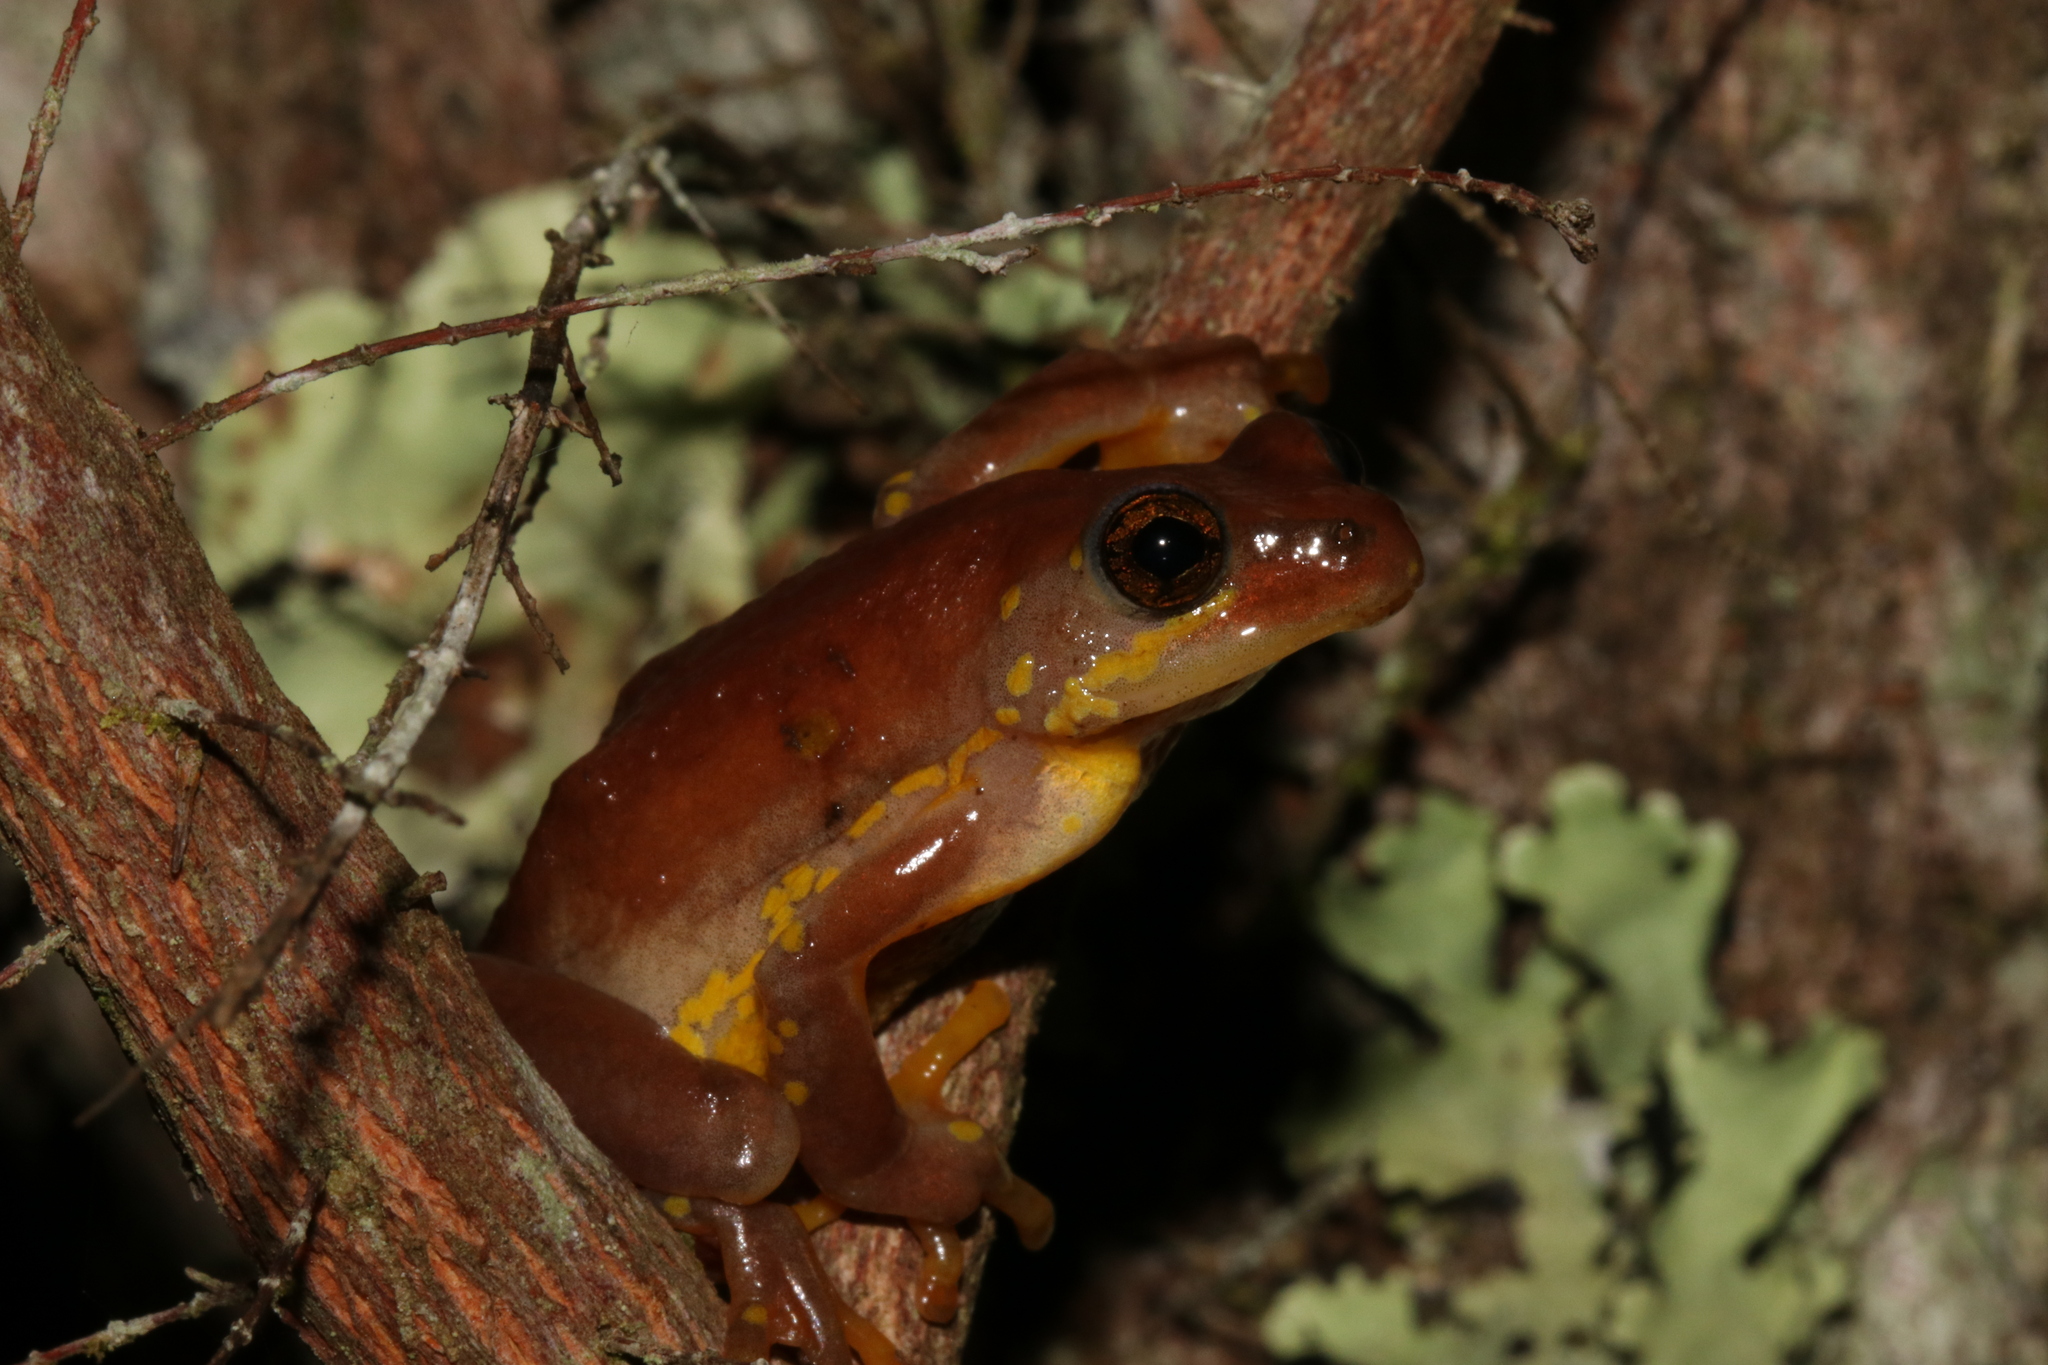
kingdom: Animalia
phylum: Chordata
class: Amphibia
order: Anura
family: Hyperoliidae
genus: Hyperolius
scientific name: Hyperolius pictus
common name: Variable reed frog
